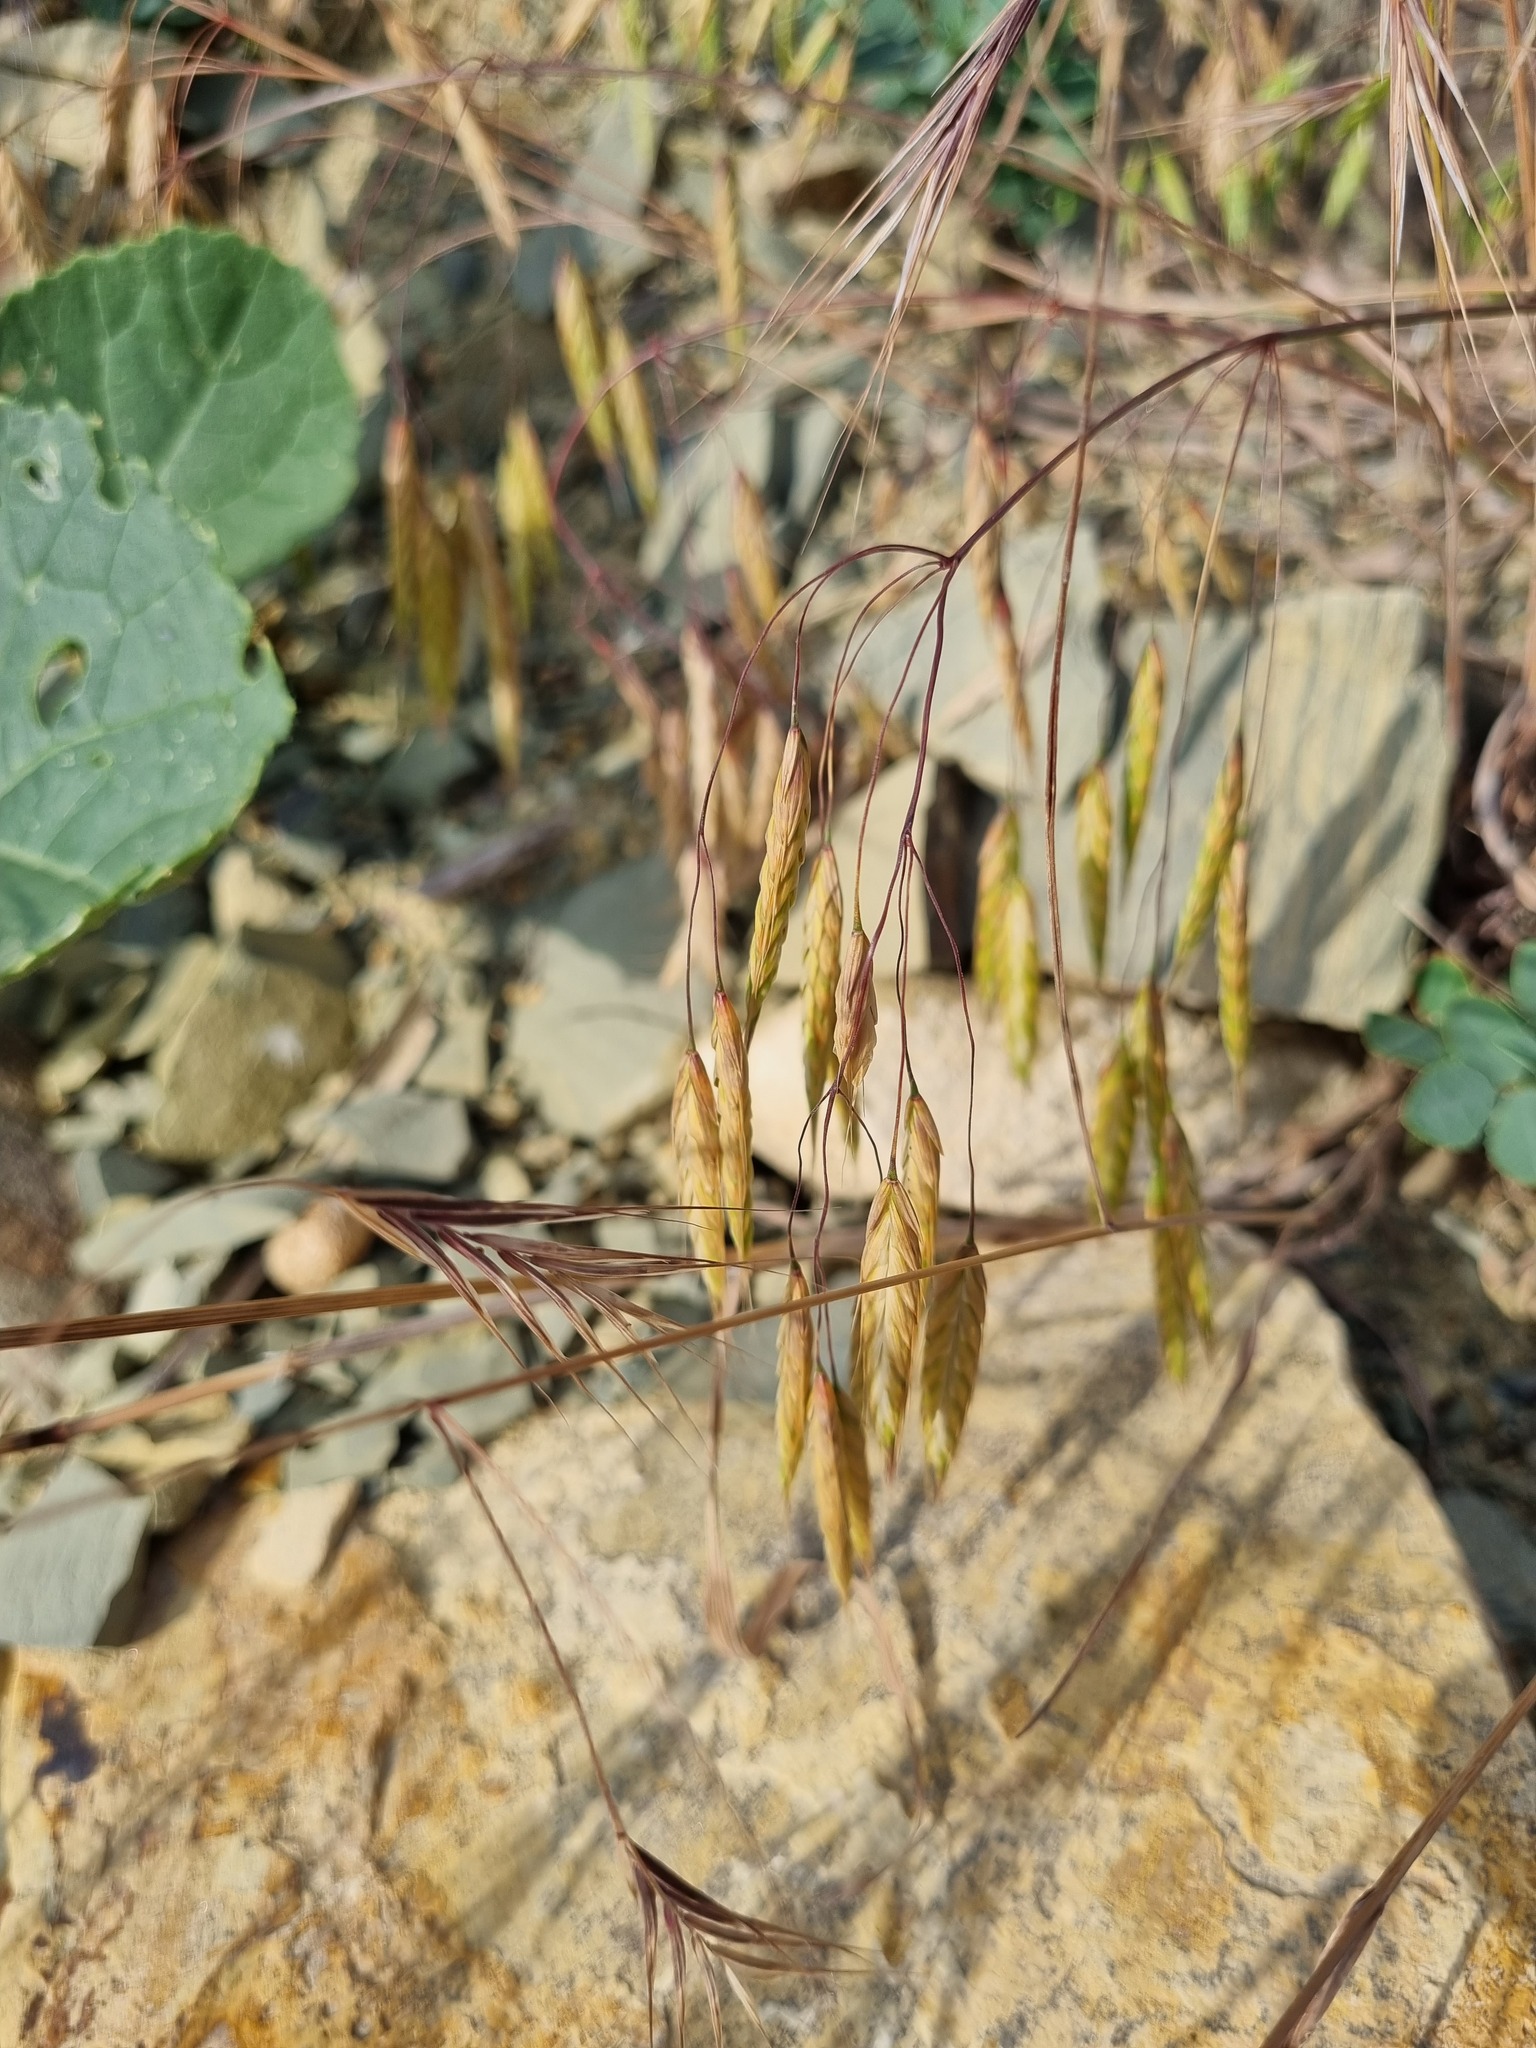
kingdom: Plantae
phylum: Tracheophyta
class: Liliopsida
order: Poales
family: Poaceae
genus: Bromus
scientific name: Bromus sterilis
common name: Poverty brome
